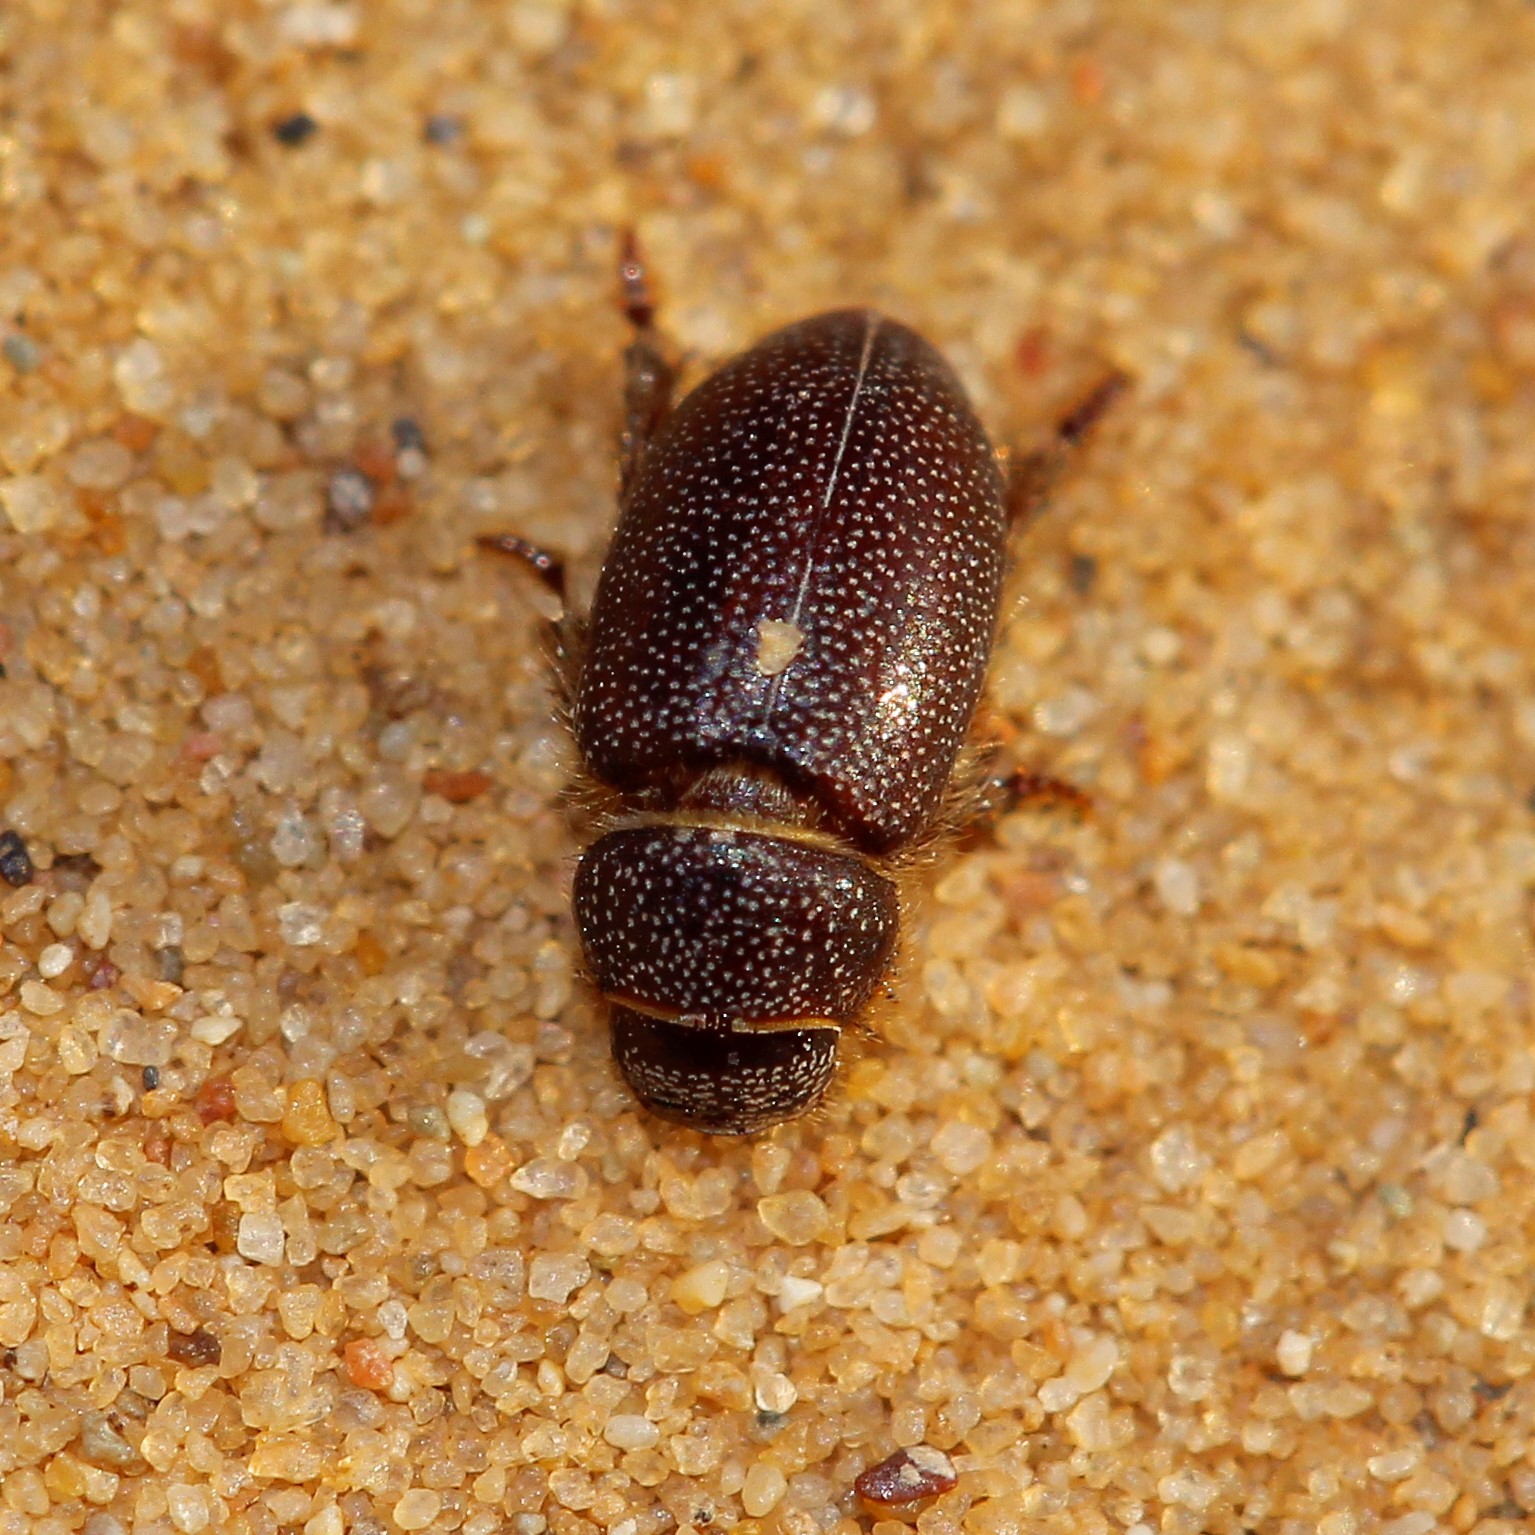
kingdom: Animalia
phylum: Arthropoda
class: Insecta
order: Coleoptera
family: Scarabaeidae
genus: Eremazus
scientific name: Eremazus cribratus
